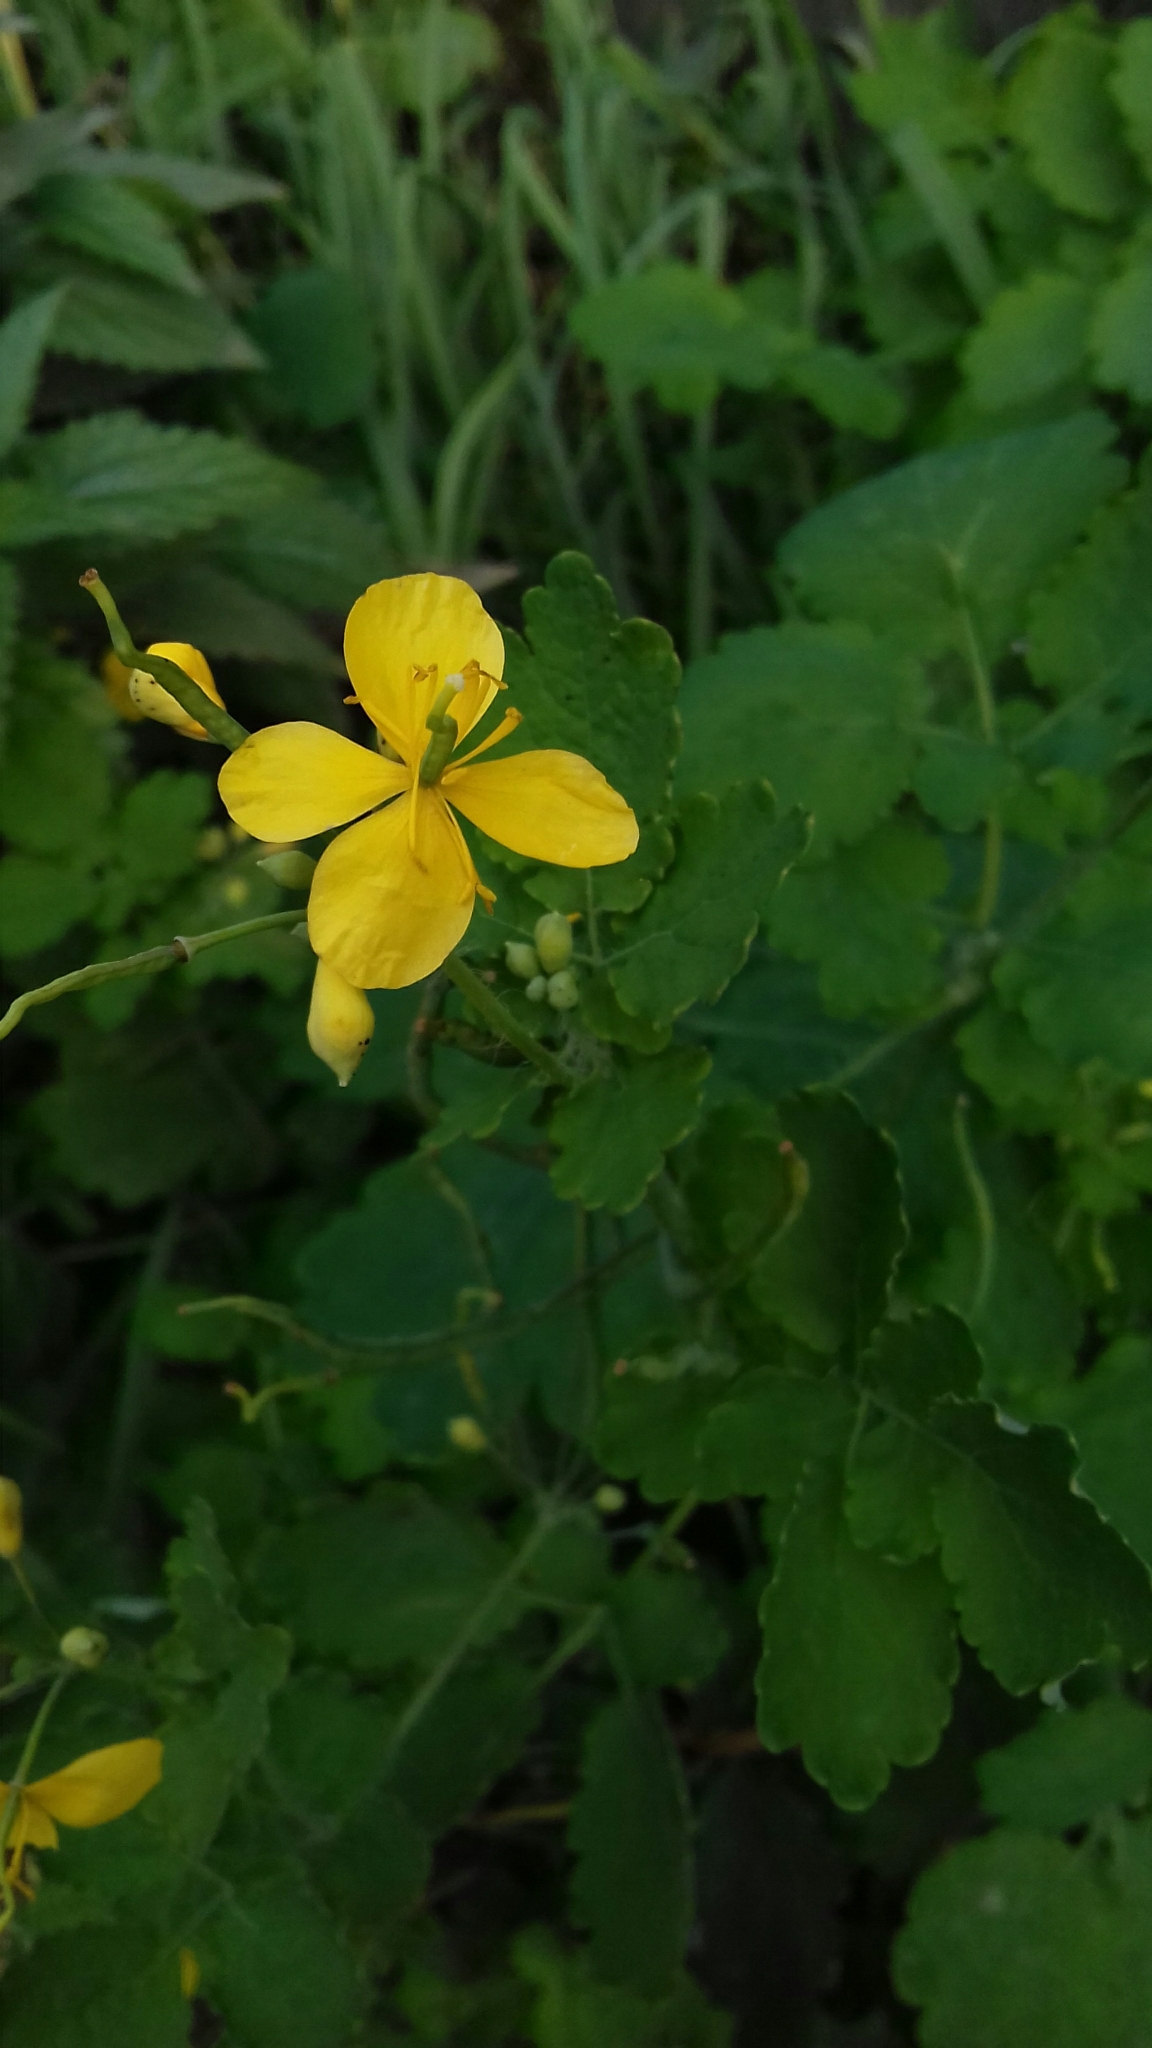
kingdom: Plantae
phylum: Tracheophyta
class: Magnoliopsida
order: Ranunculales
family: Papaveraceae
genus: Chelidonium
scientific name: Chelidonium majus
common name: Greater celandine
